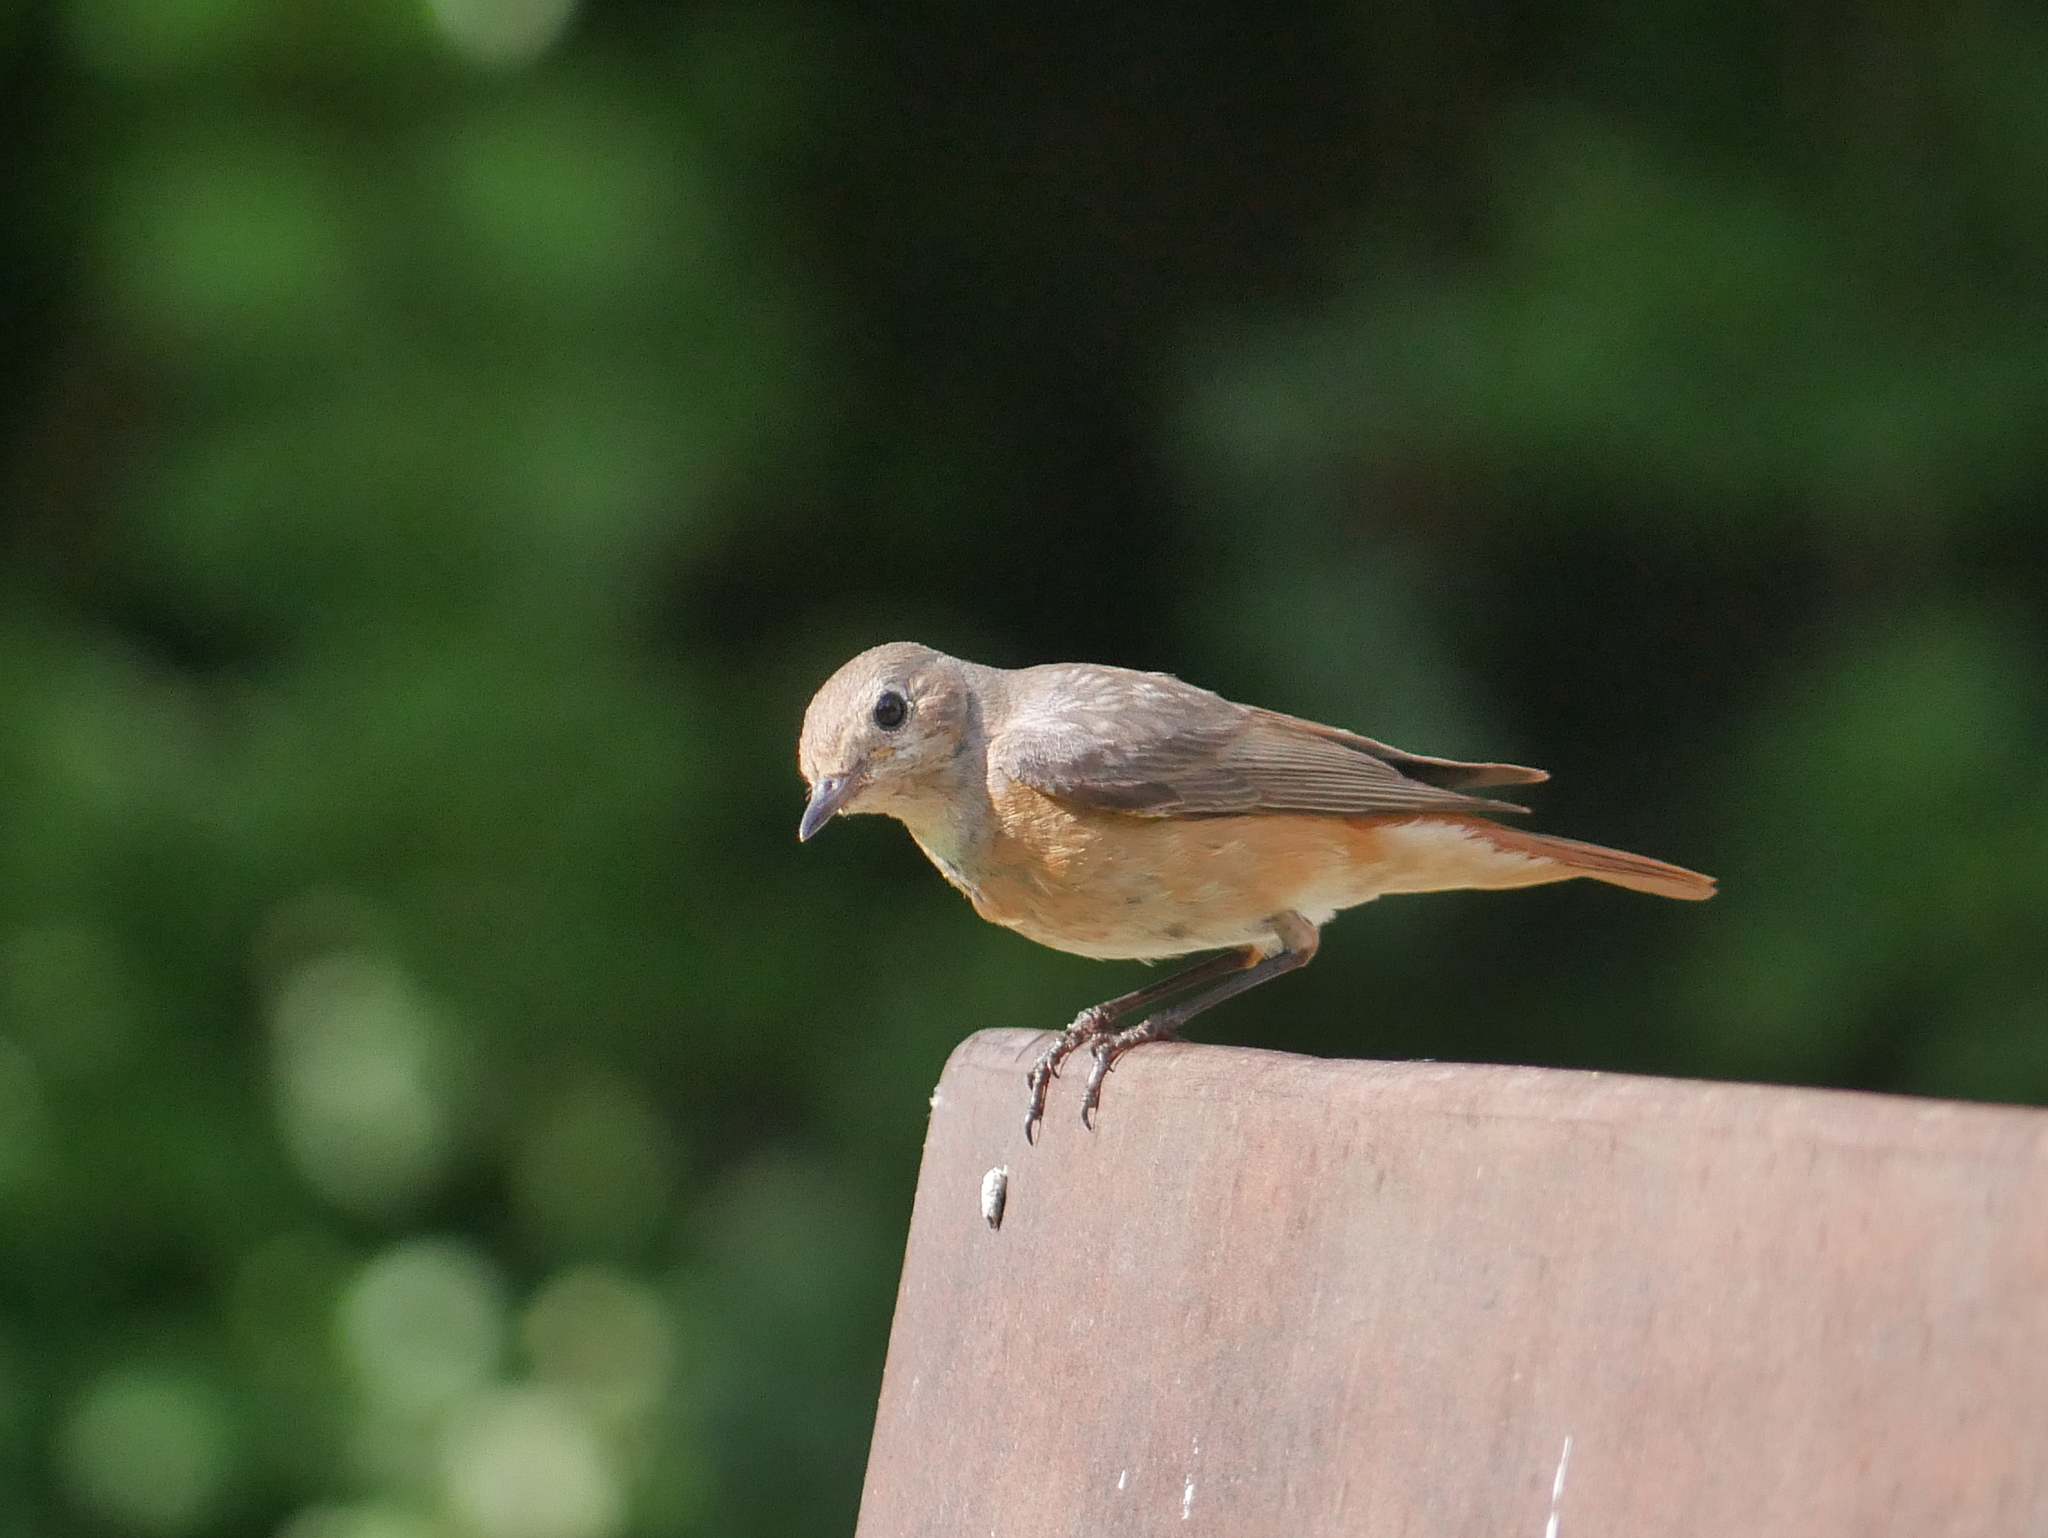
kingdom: Animalia
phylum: Chordata
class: Aves
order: Passeriformes
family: Muscicapidae
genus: Phoenicurus
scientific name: Phoenicurus phoenicurus
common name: Common redstart
